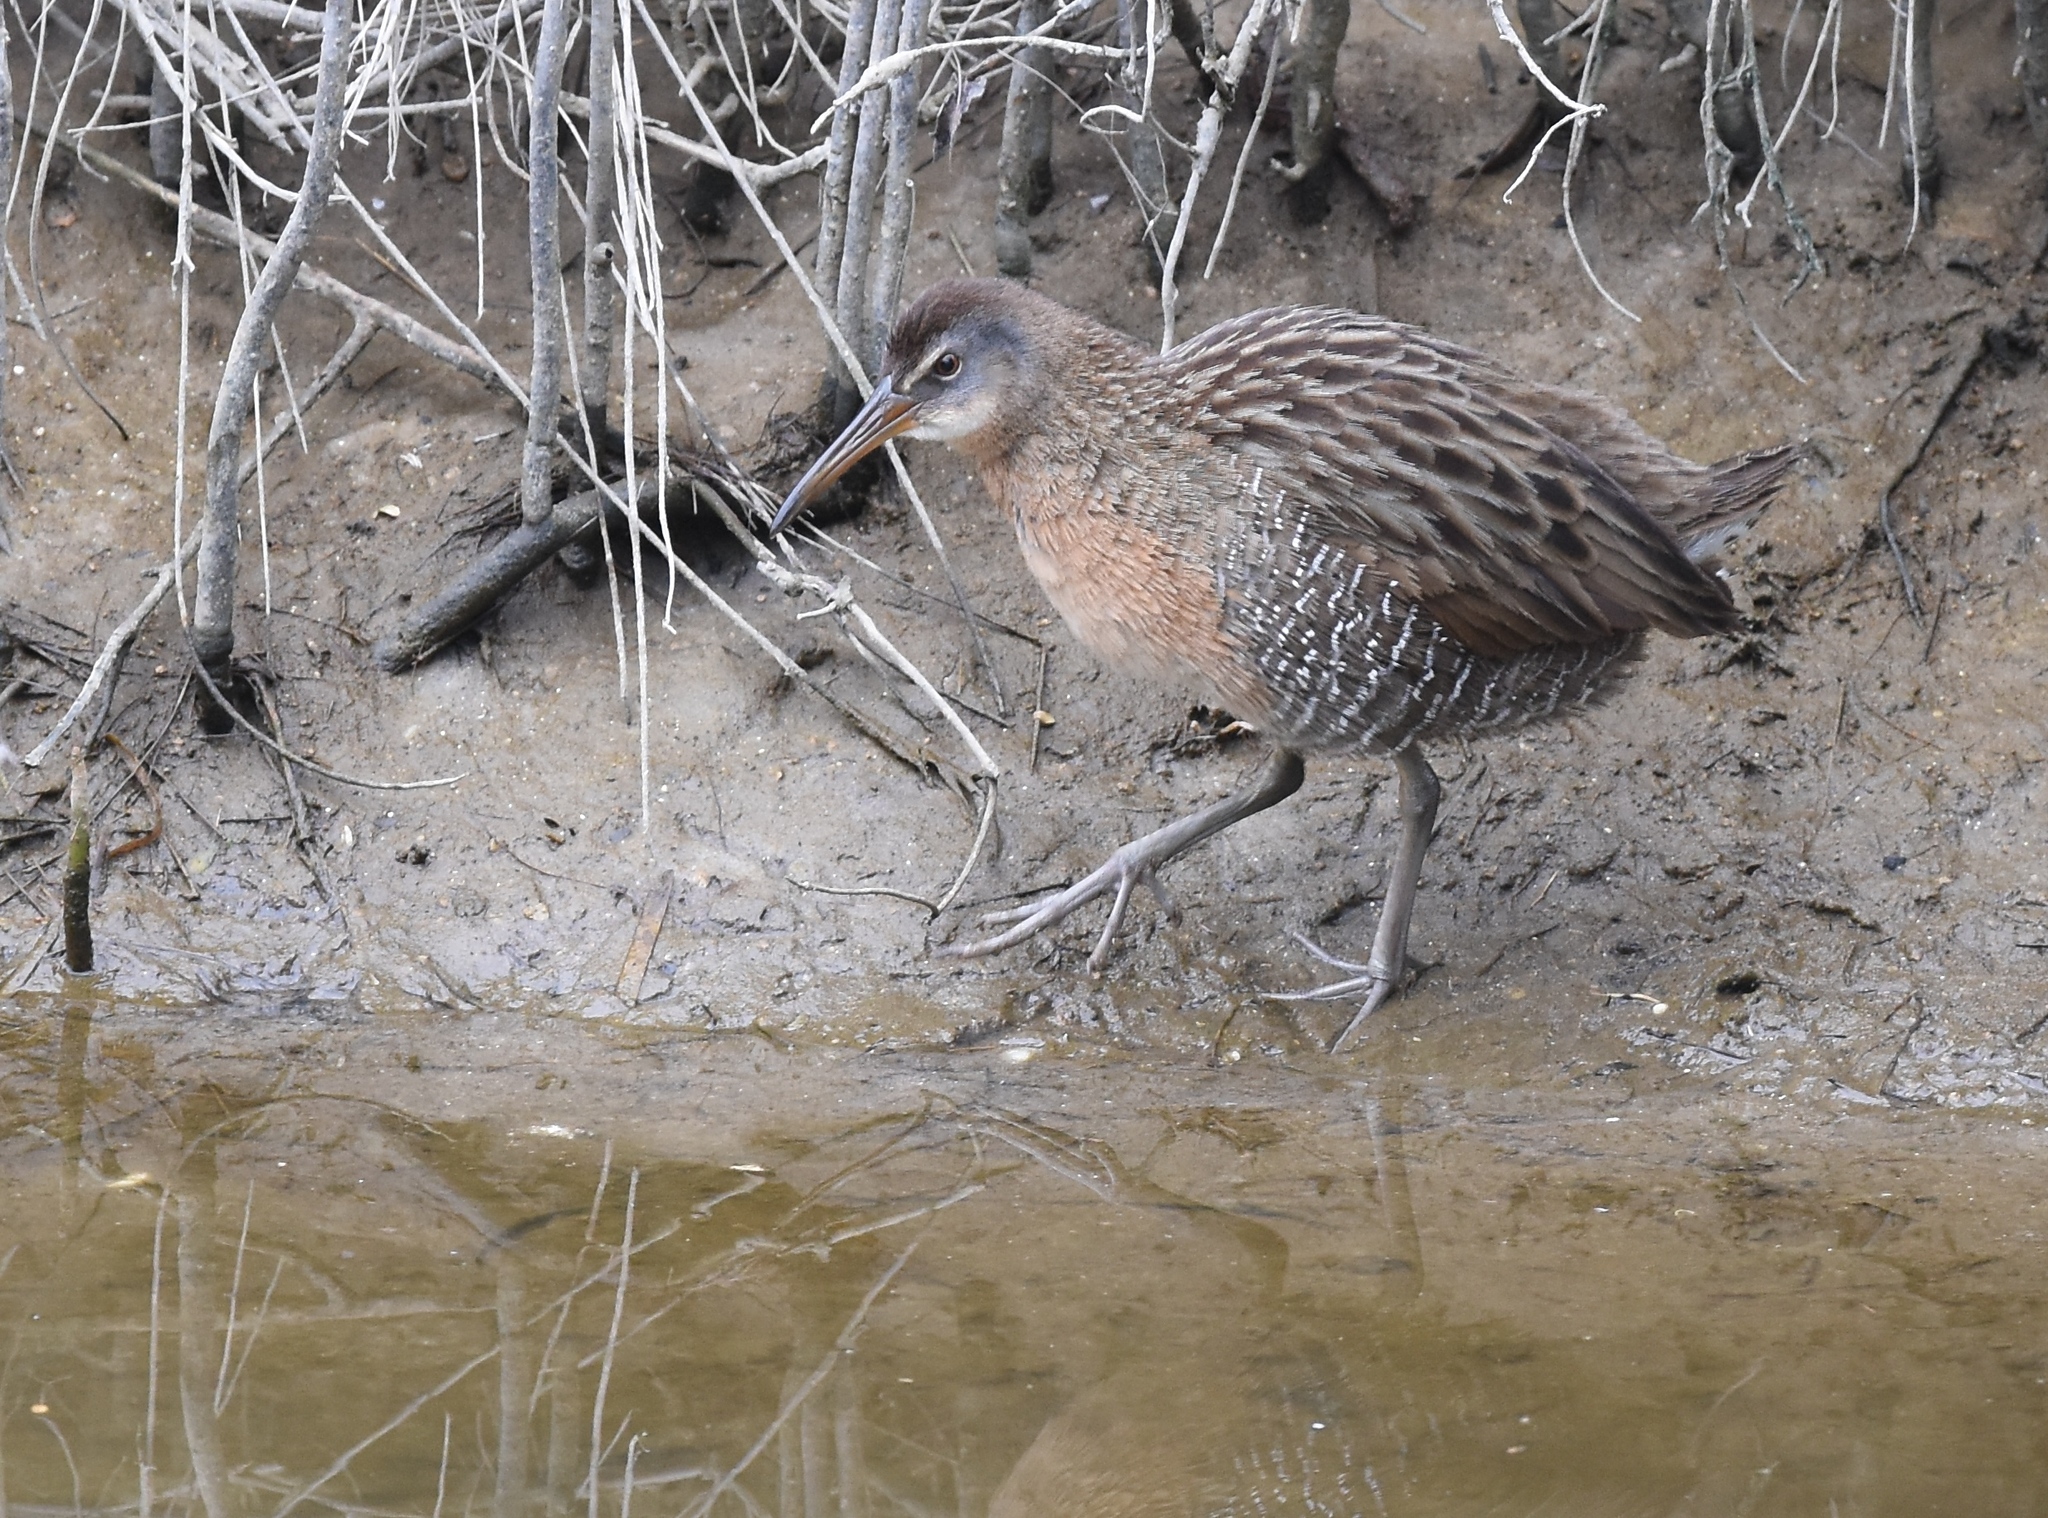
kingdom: Animalia
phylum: Chordata
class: Aves
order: Gruiformes
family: Rallidae
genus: Rallus
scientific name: Rallus crepitans
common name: Clapper rail
